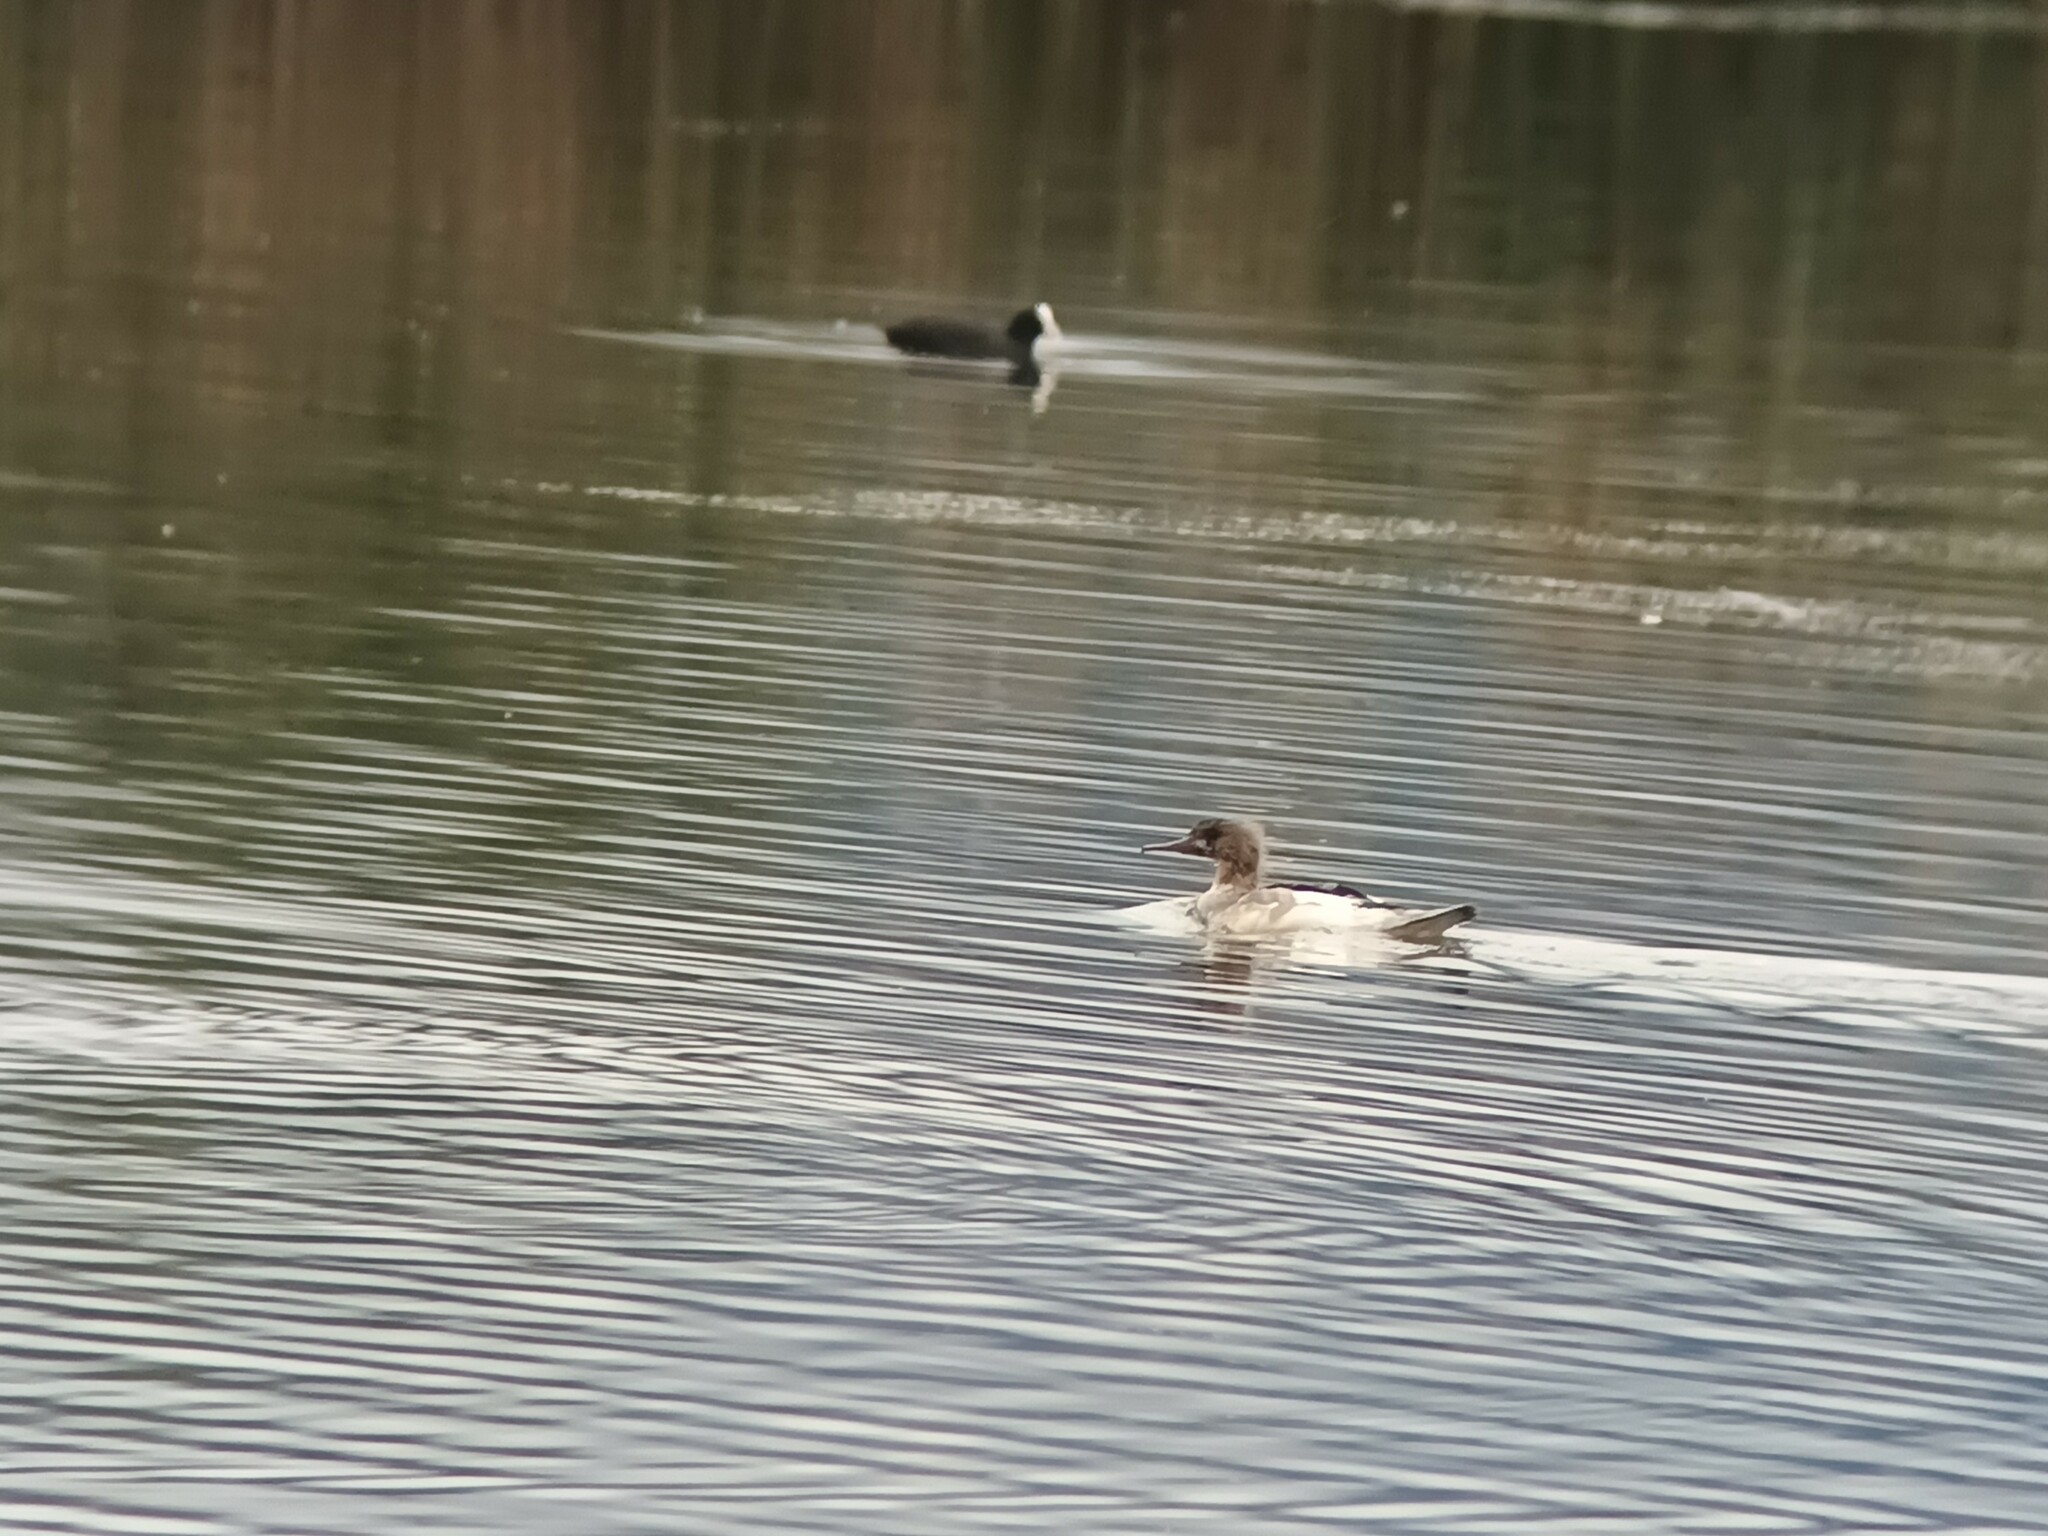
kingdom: Animalia
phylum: Chordata
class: Aves
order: Anseriformes
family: Anatidae
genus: Mergus
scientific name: Mergus merganser
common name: Common merganser
